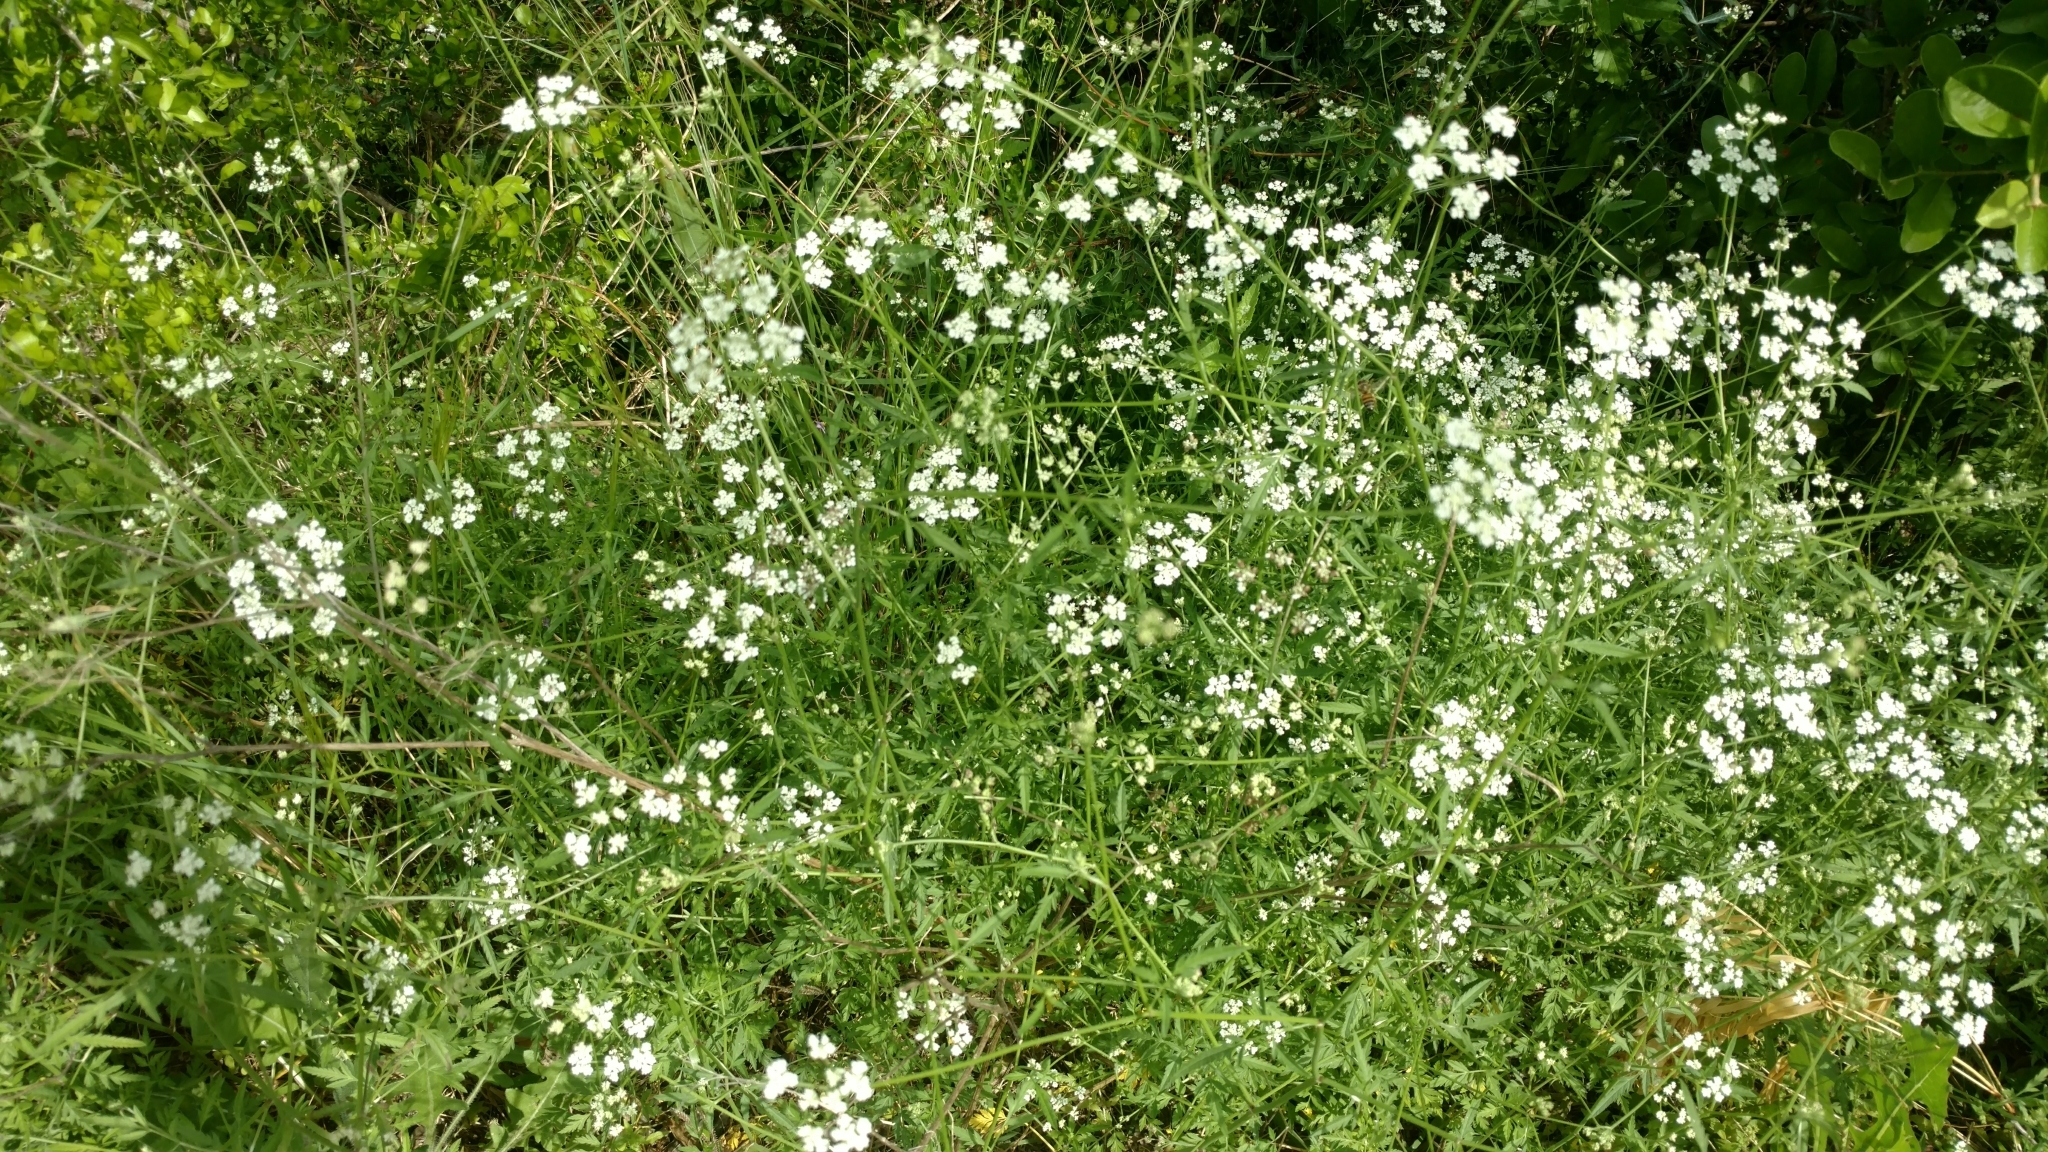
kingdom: Plantae
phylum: Tracheophyta
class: Magnoliopsida
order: Apiales
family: Apiaceae
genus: Torilis
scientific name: Torilis arvensis
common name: Spreading hedge-parsley
